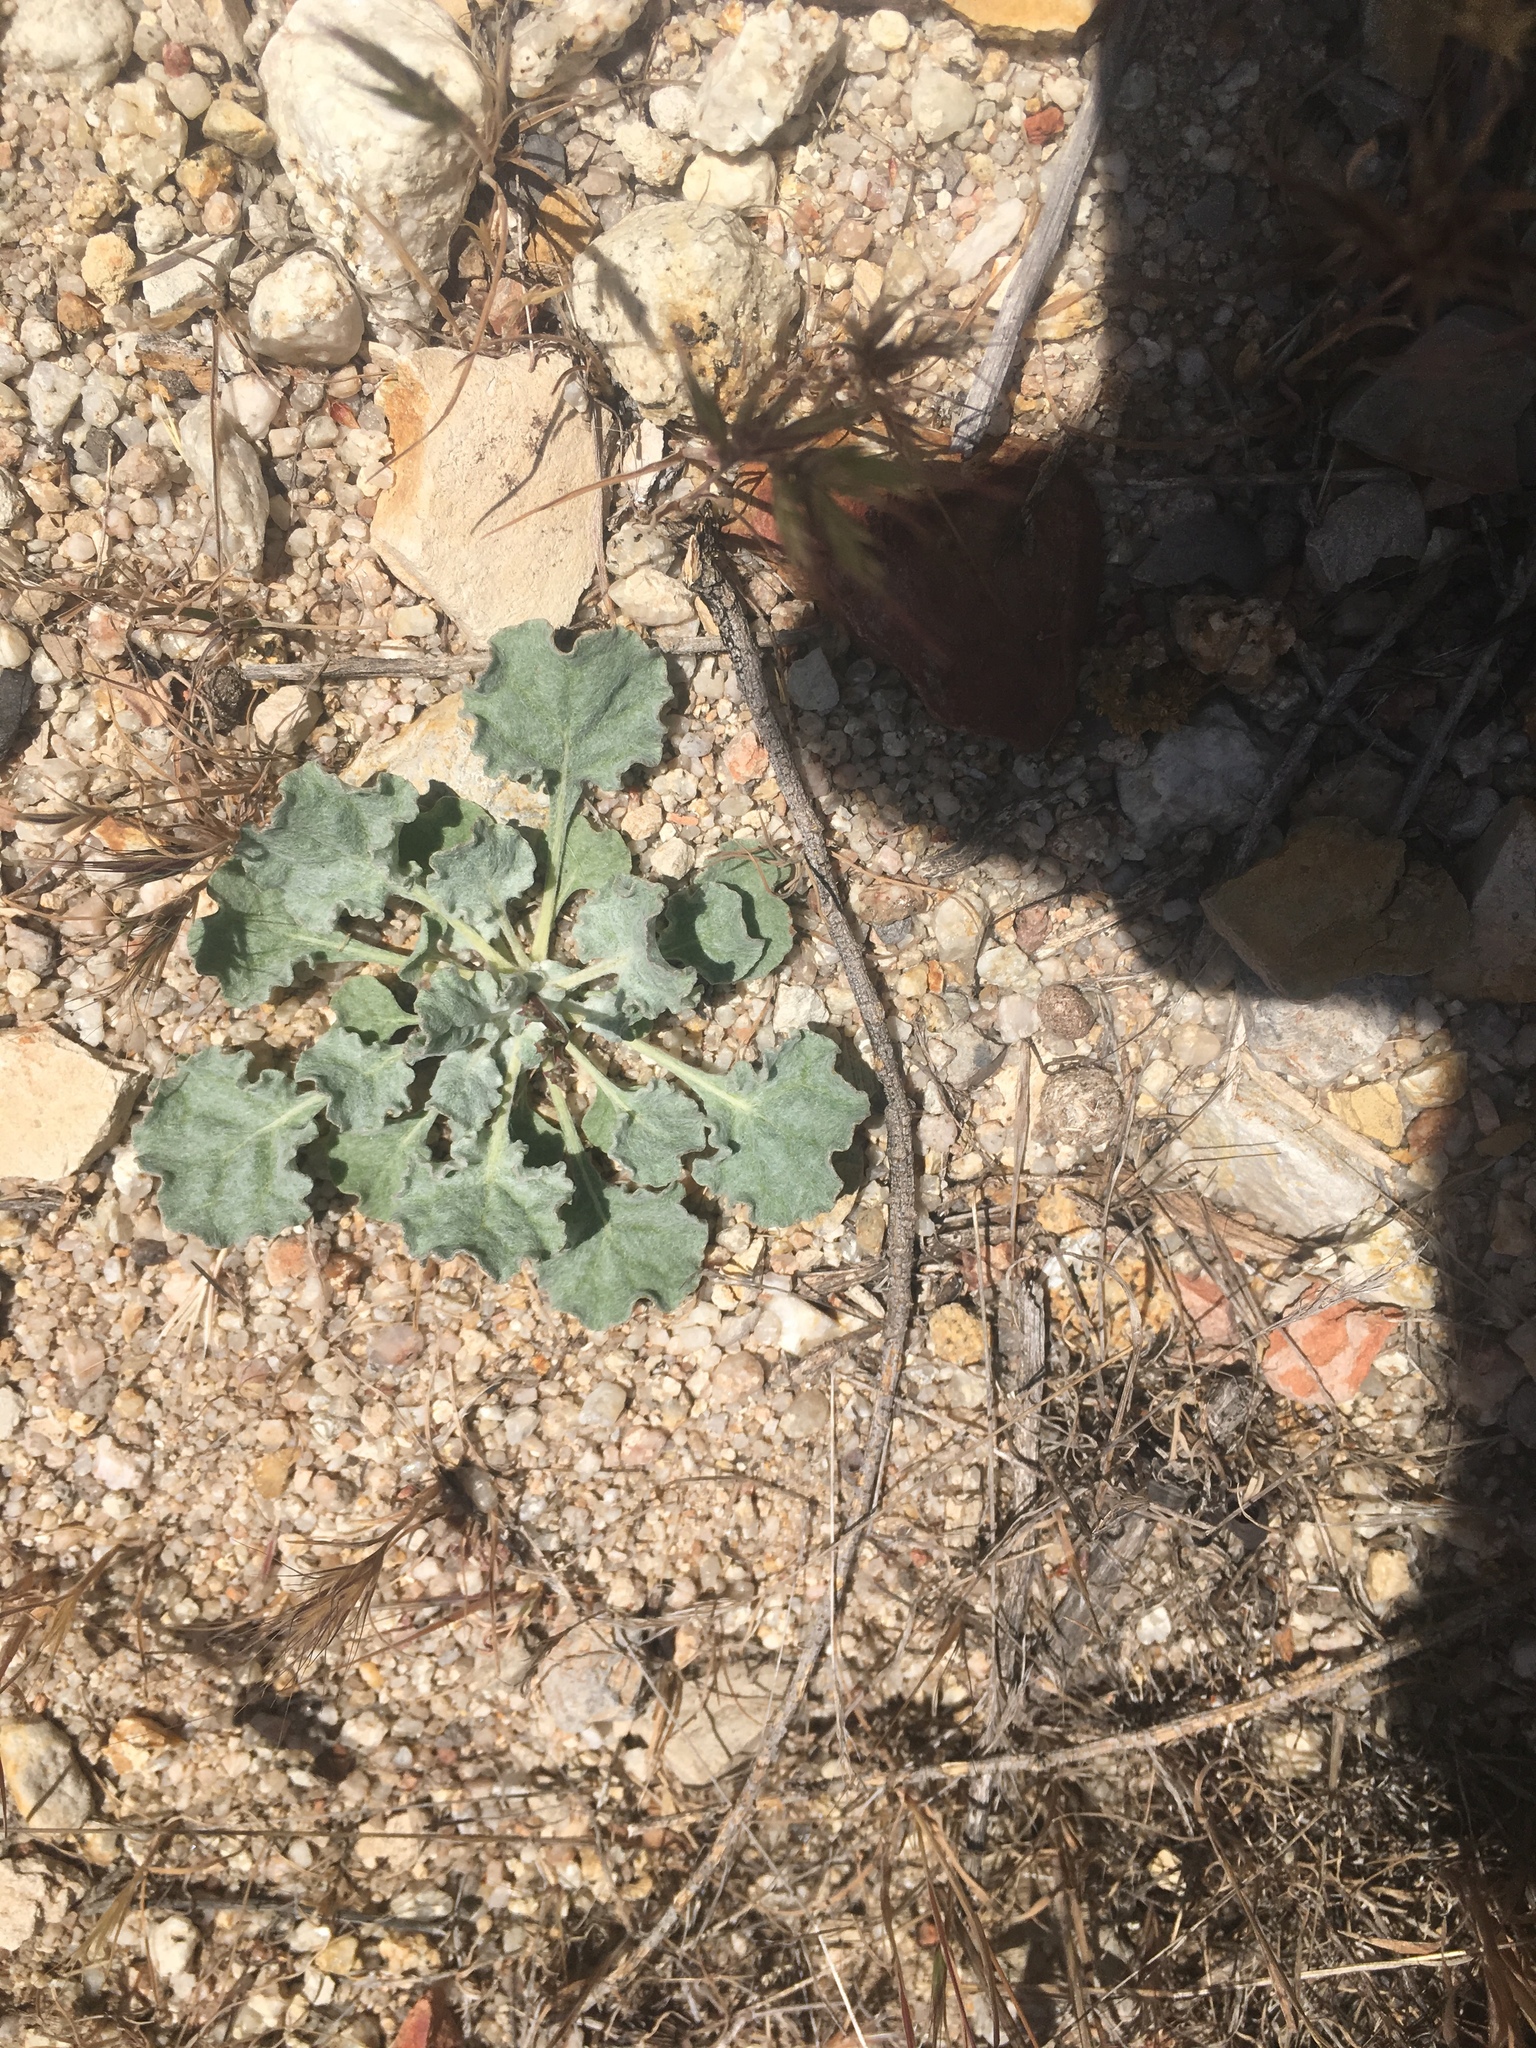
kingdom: Plantae
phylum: Tracheophyta
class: Magnoliopsida
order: Caryophyllales
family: Polygonaceae
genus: Eriogonum
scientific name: Eriogonum elegans
